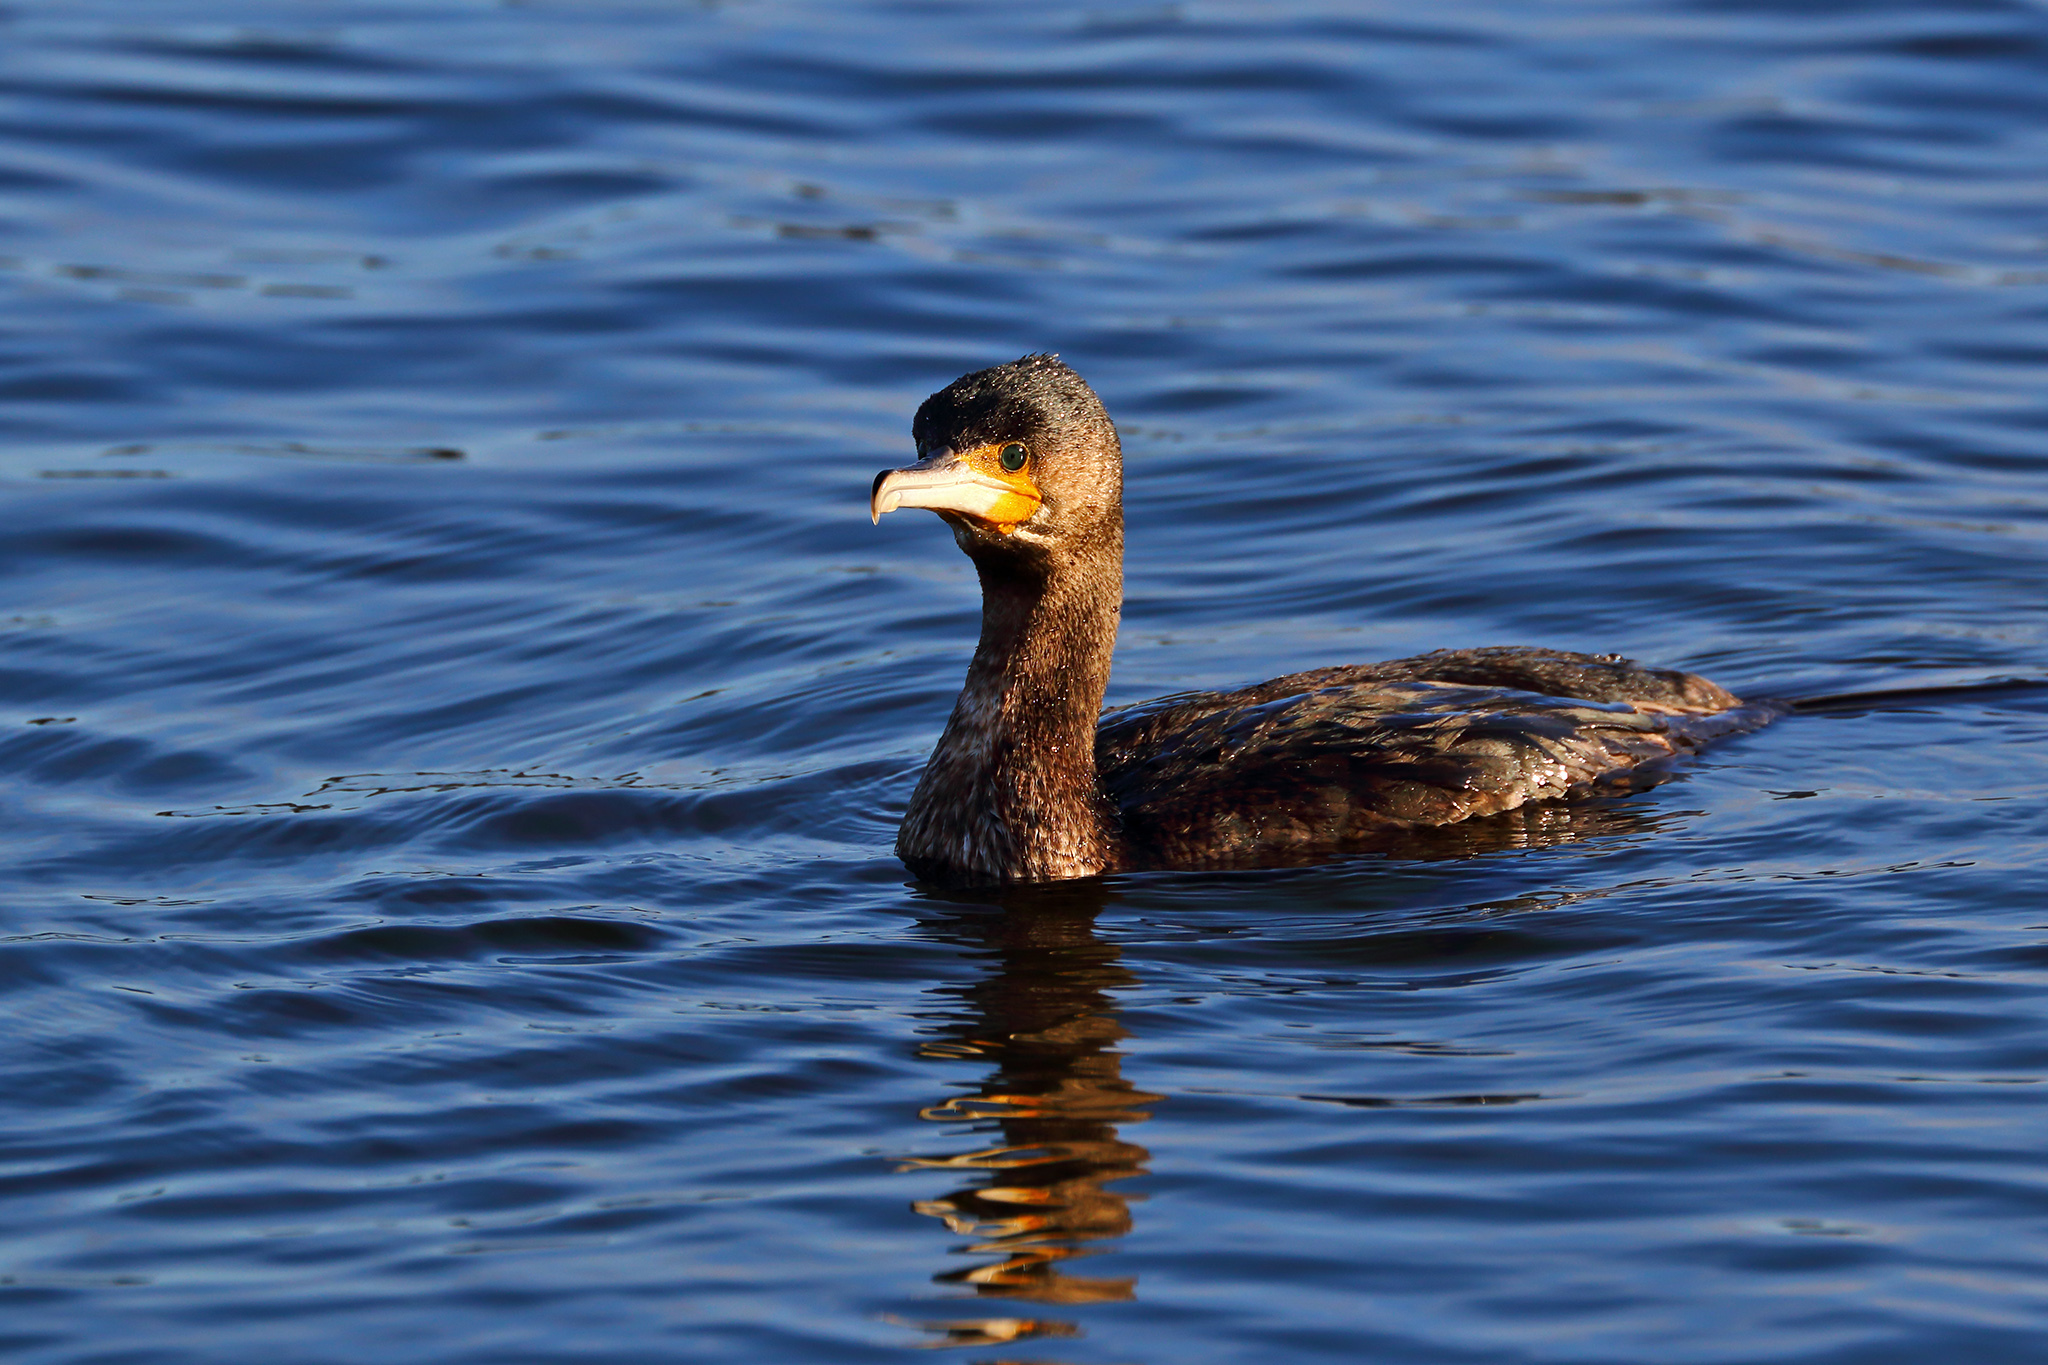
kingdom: Animalia
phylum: Chordata
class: Aves
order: Suliformes
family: Phalacrocoracidae
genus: Phalacrocorax
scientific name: Phalacrocorax carbo
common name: Great cormorant
